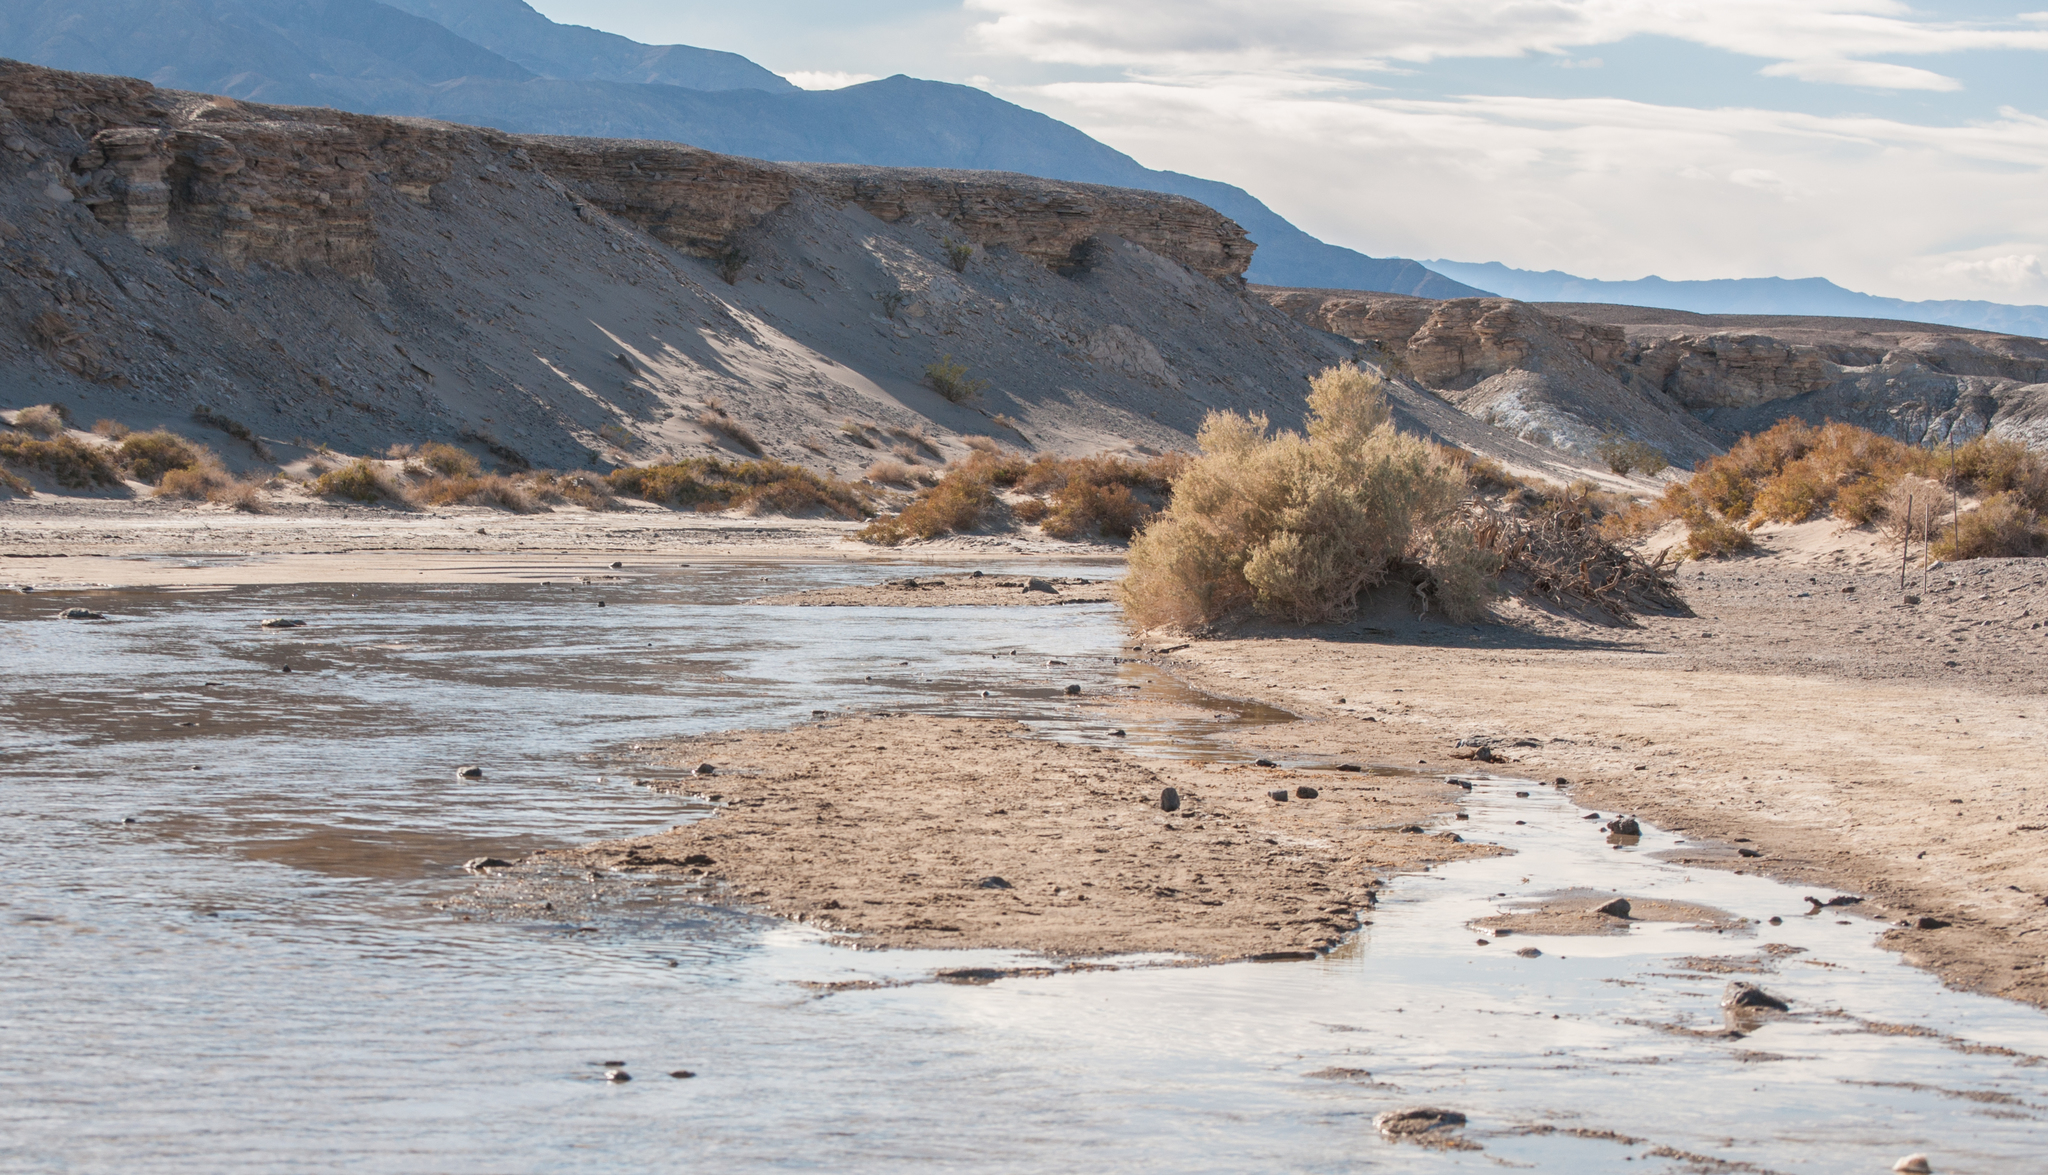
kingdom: Animalia
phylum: Chordata
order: Cyprinodontiformes
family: Cyprinodontidae
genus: Cyprinodon
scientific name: Cyprinodon salinus
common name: Cottonball marsh pupfish
